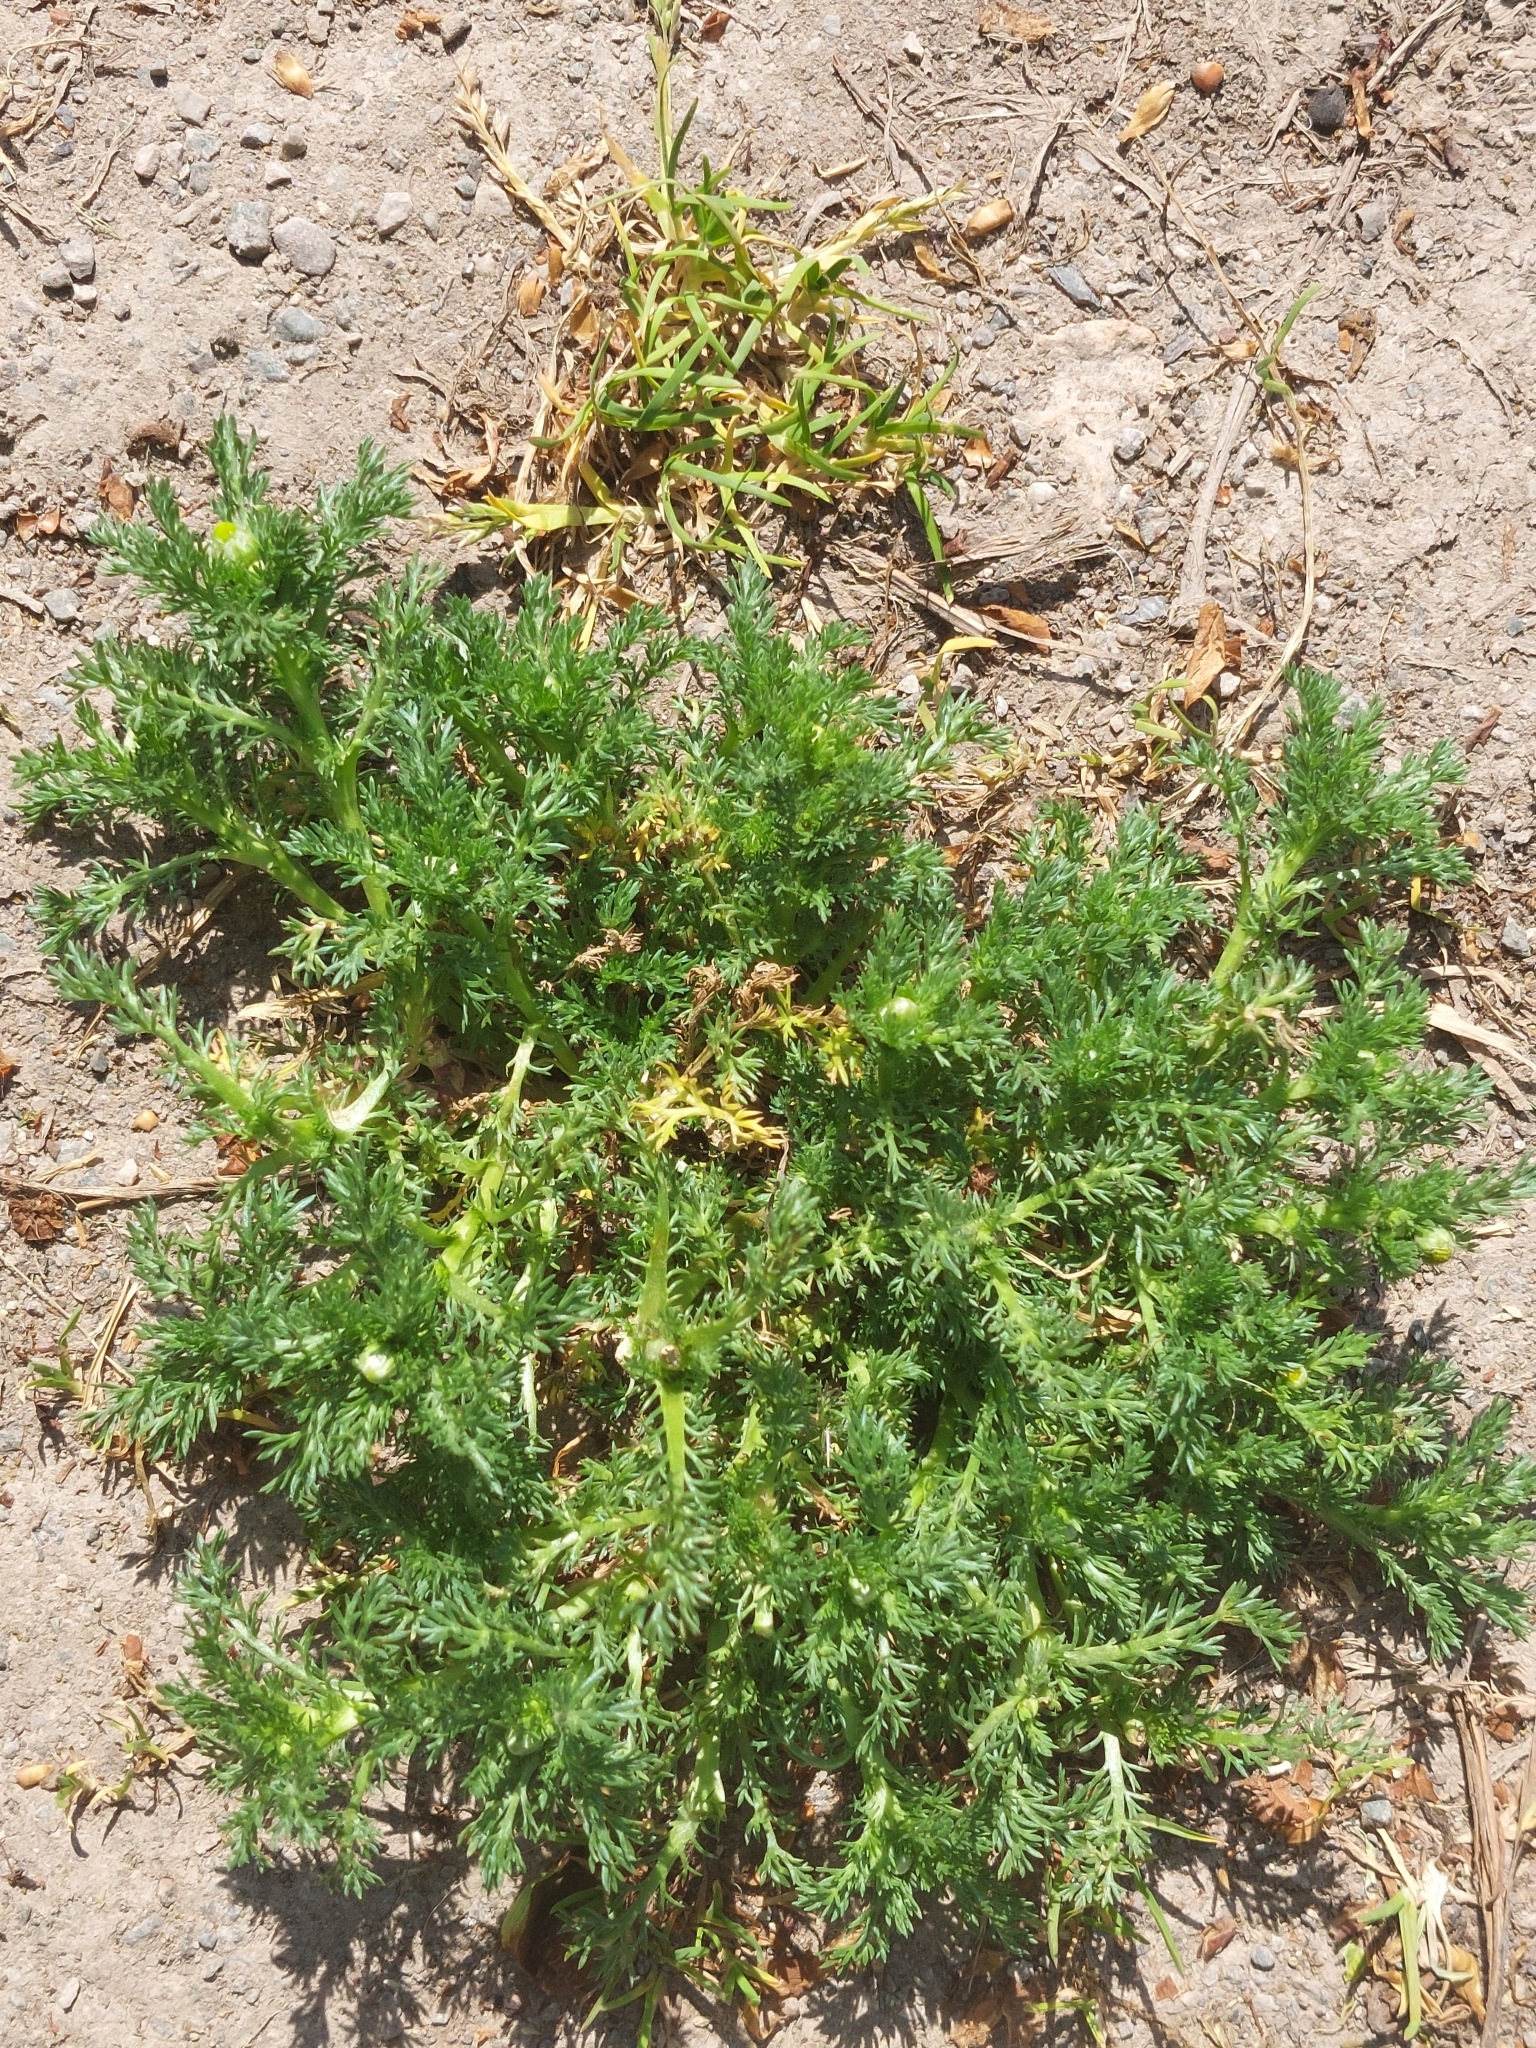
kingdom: Plantae
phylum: Tracheophyta
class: Magnoliopsida
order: Asterales
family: Asteraceae
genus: Matricaria
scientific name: Matricaria discoidea
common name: Disc mayweed
